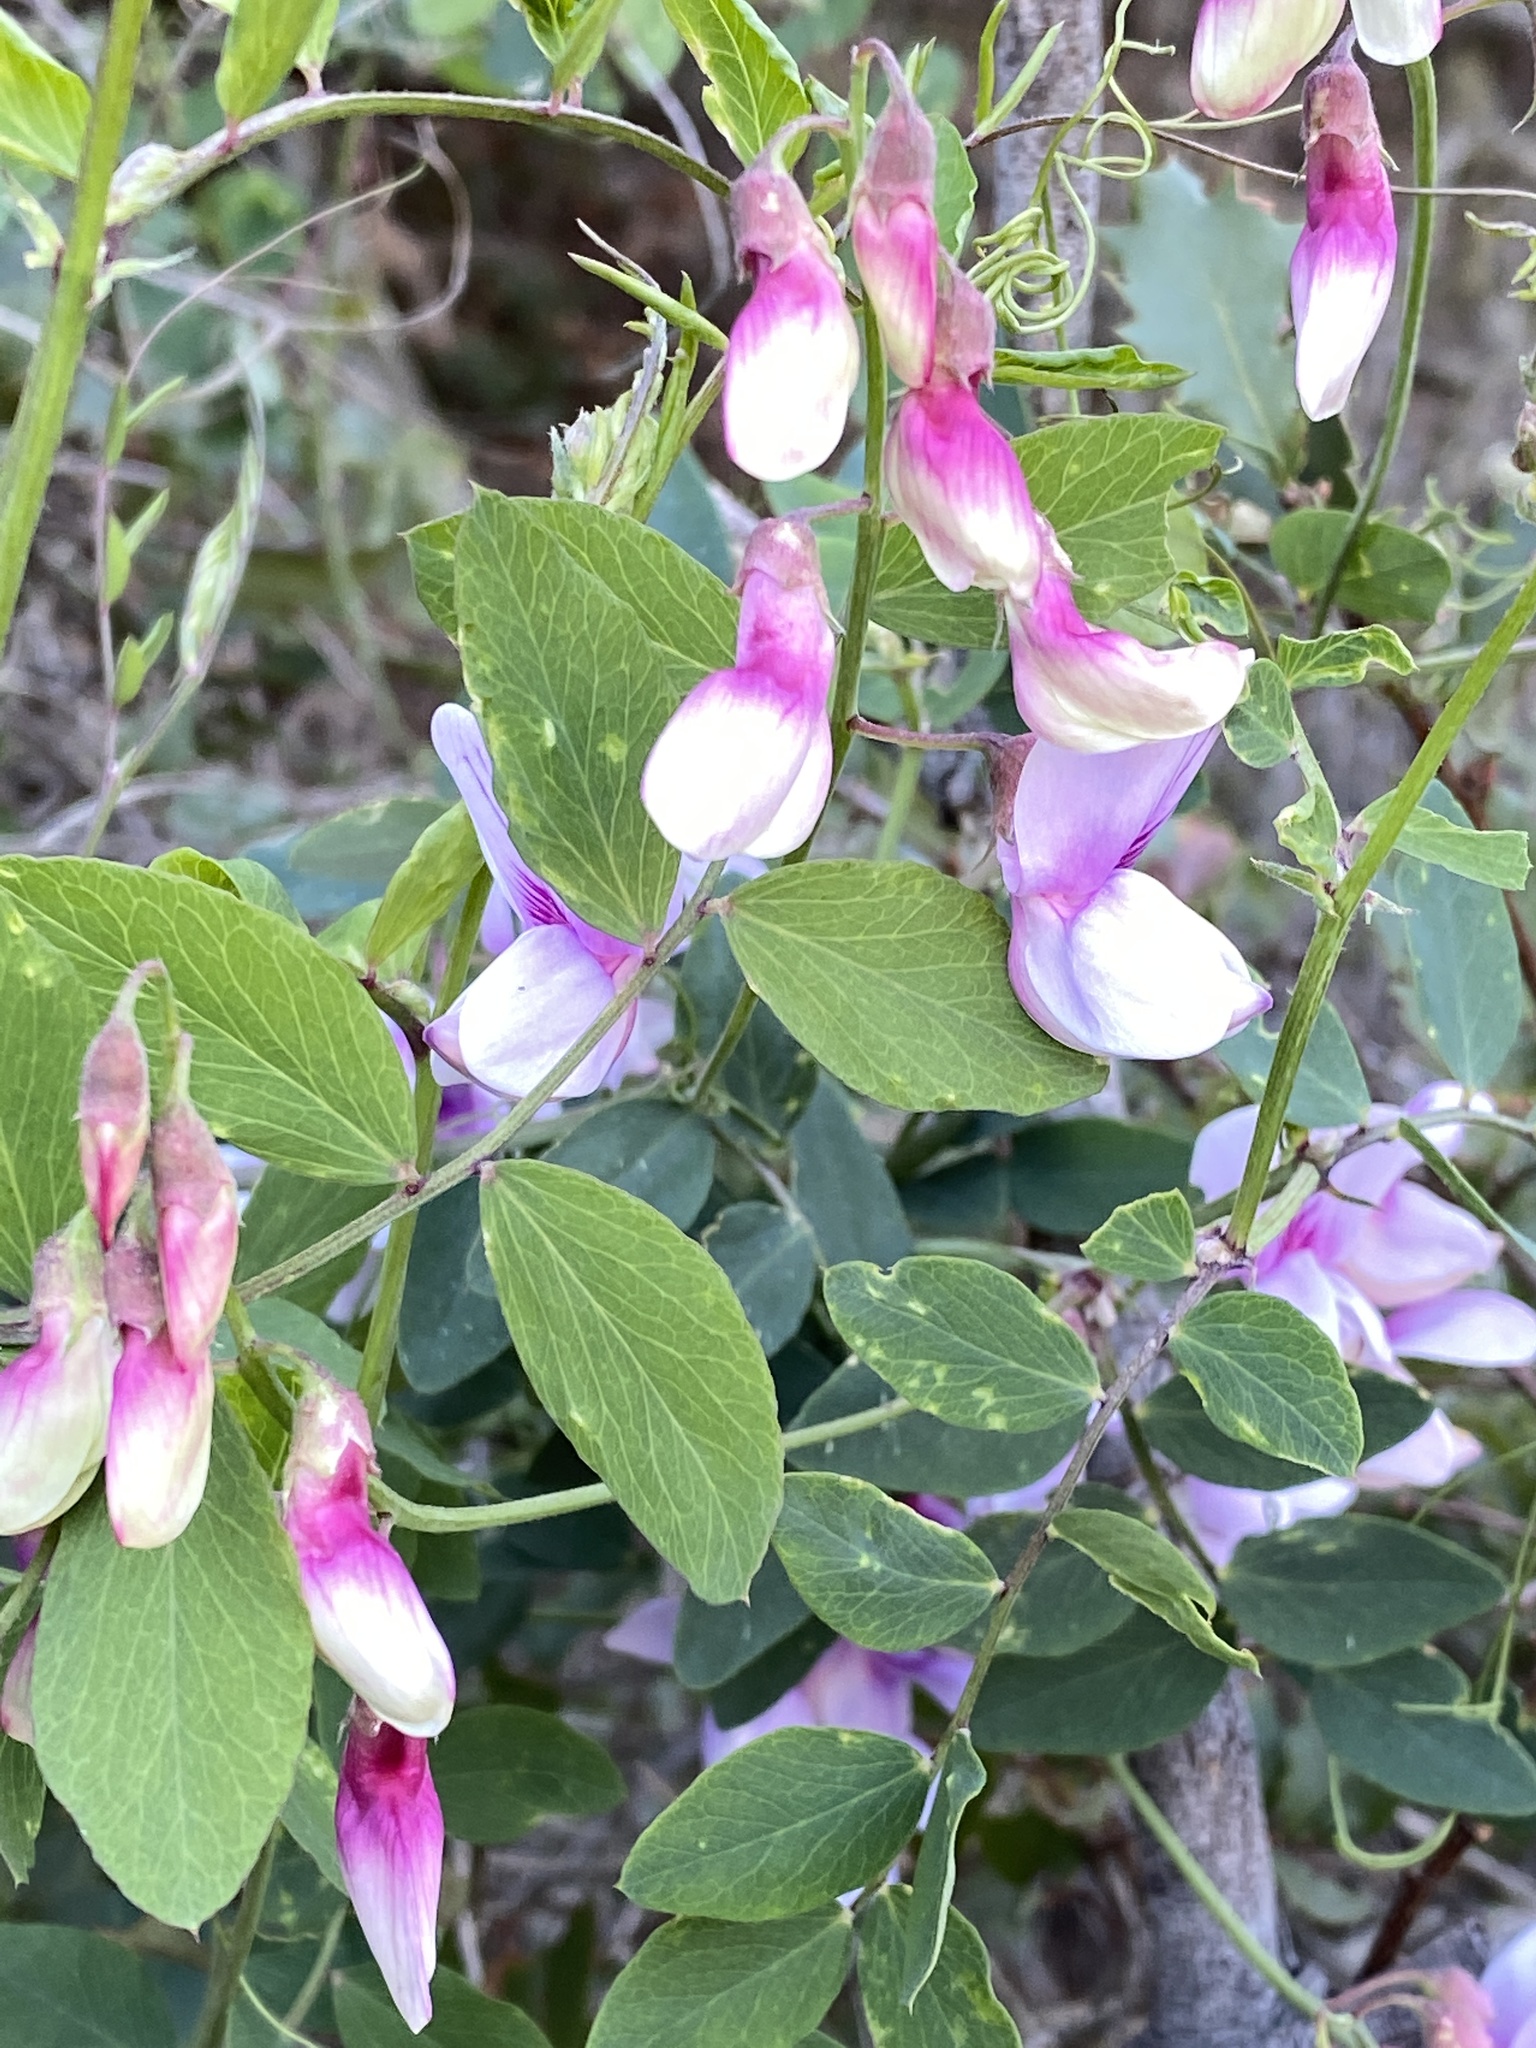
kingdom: Plantae
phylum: Tracheophyta
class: Magnoliopsida
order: Fabales
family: Fabaceae
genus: Lathyrus
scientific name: Lathyrus vestitus
